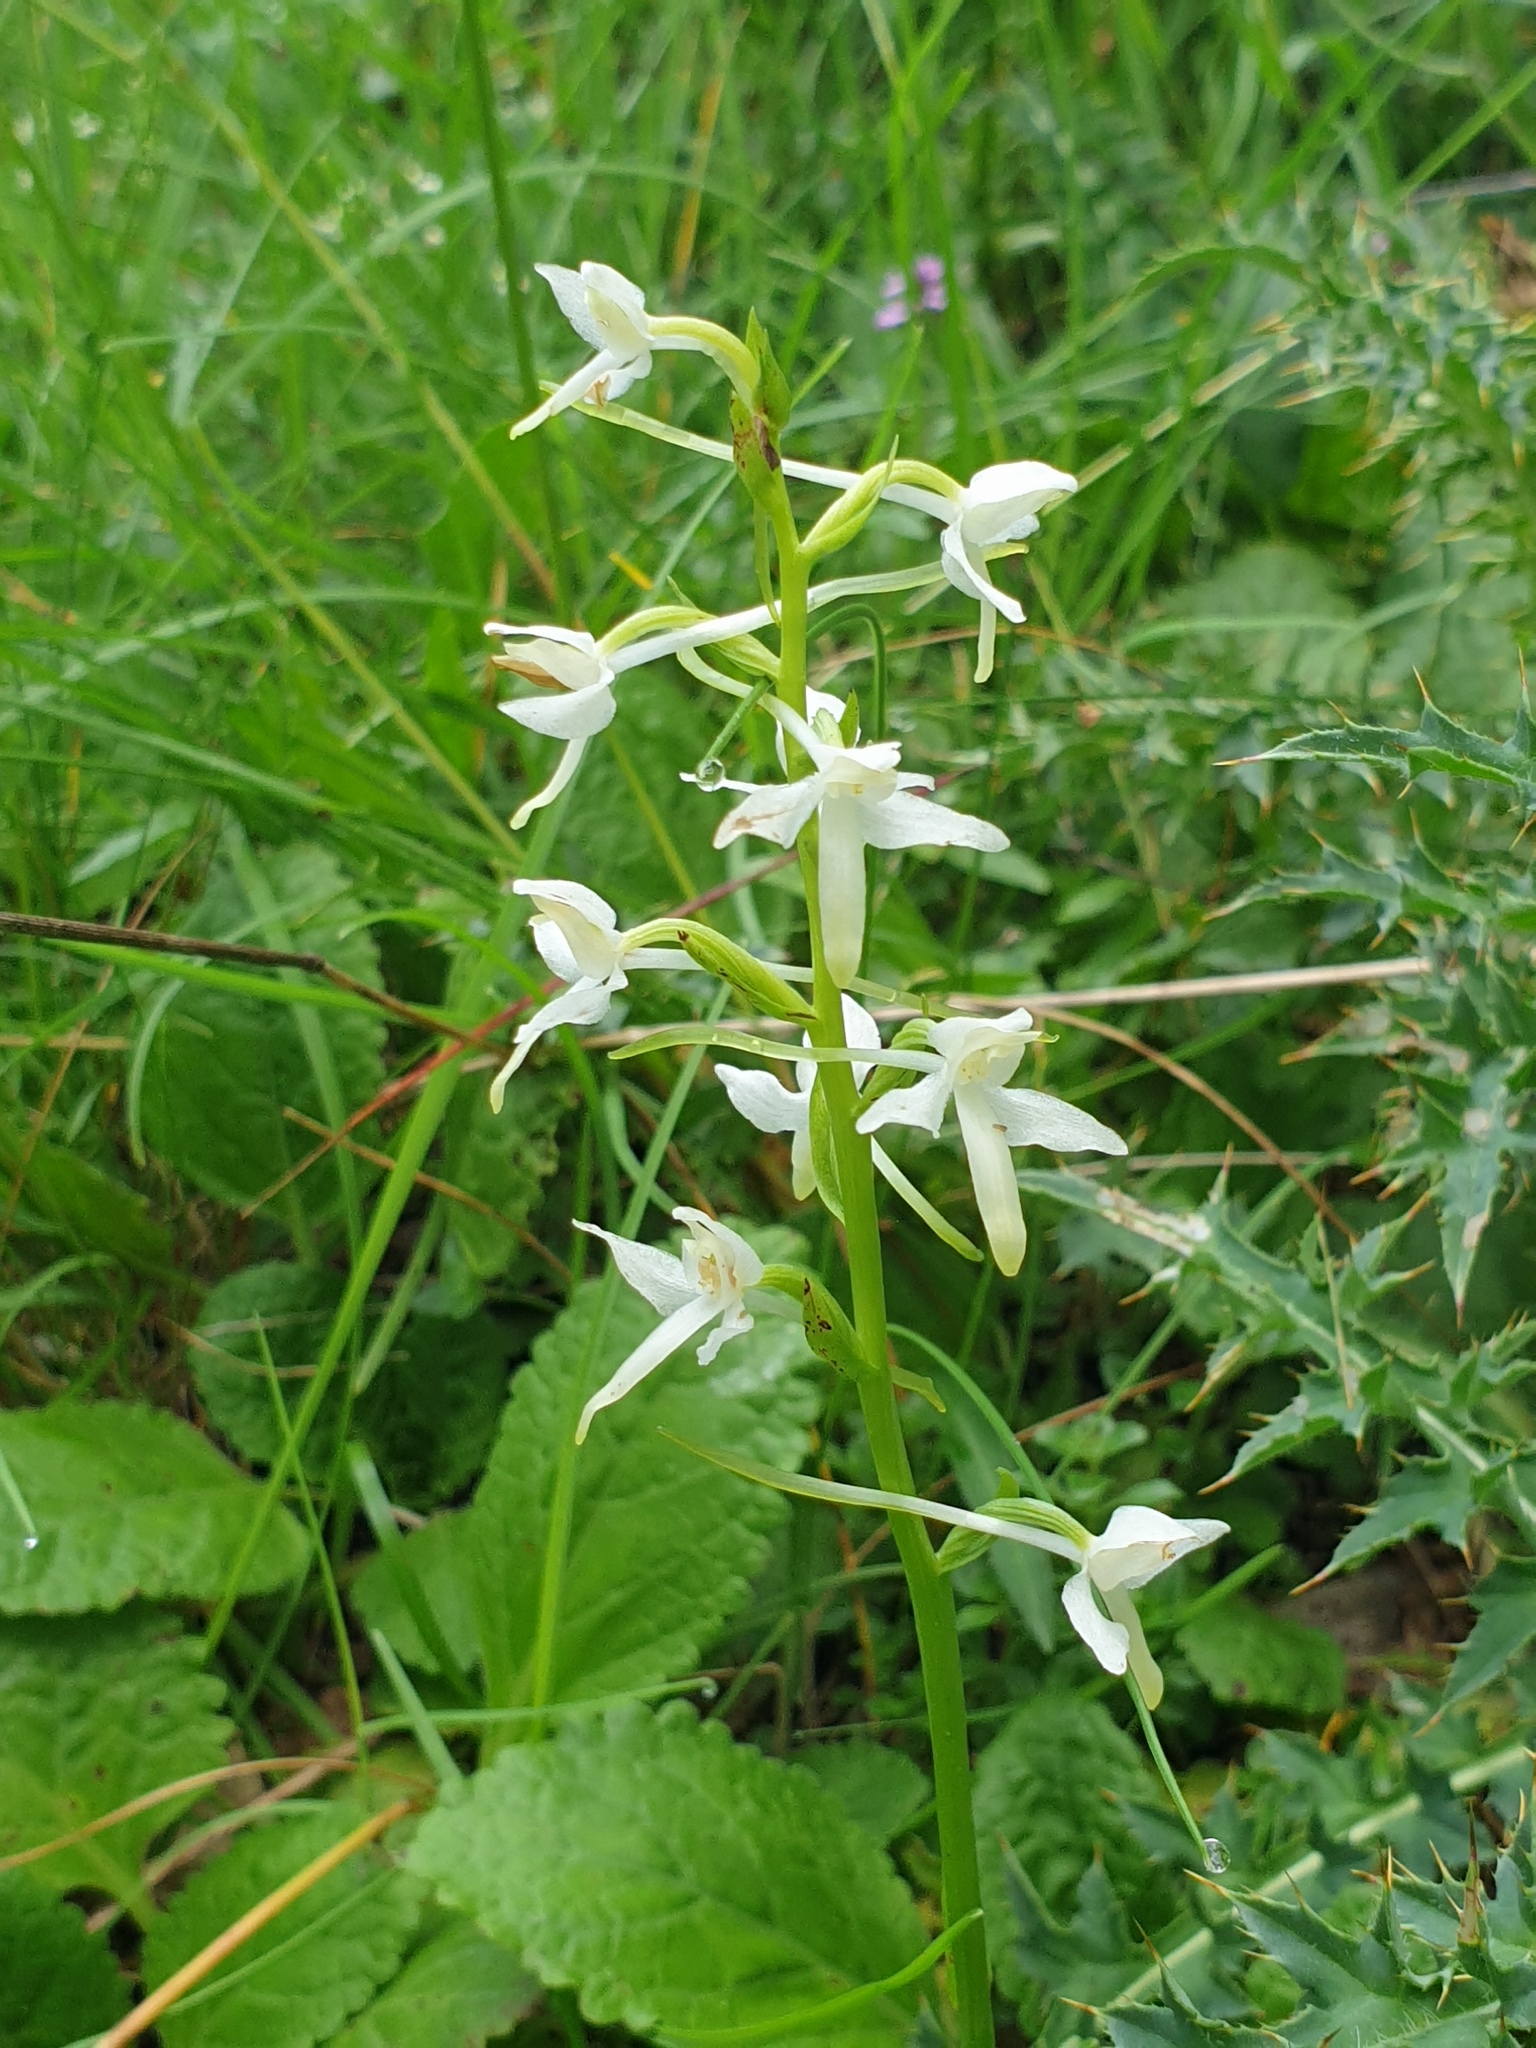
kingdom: Plantae
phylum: Tracheophyta
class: Liliopsida
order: Asparagales
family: Orchidaceae
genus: Platanthera
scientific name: Platanthera bifolia
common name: Lesser butterfly-orchid
